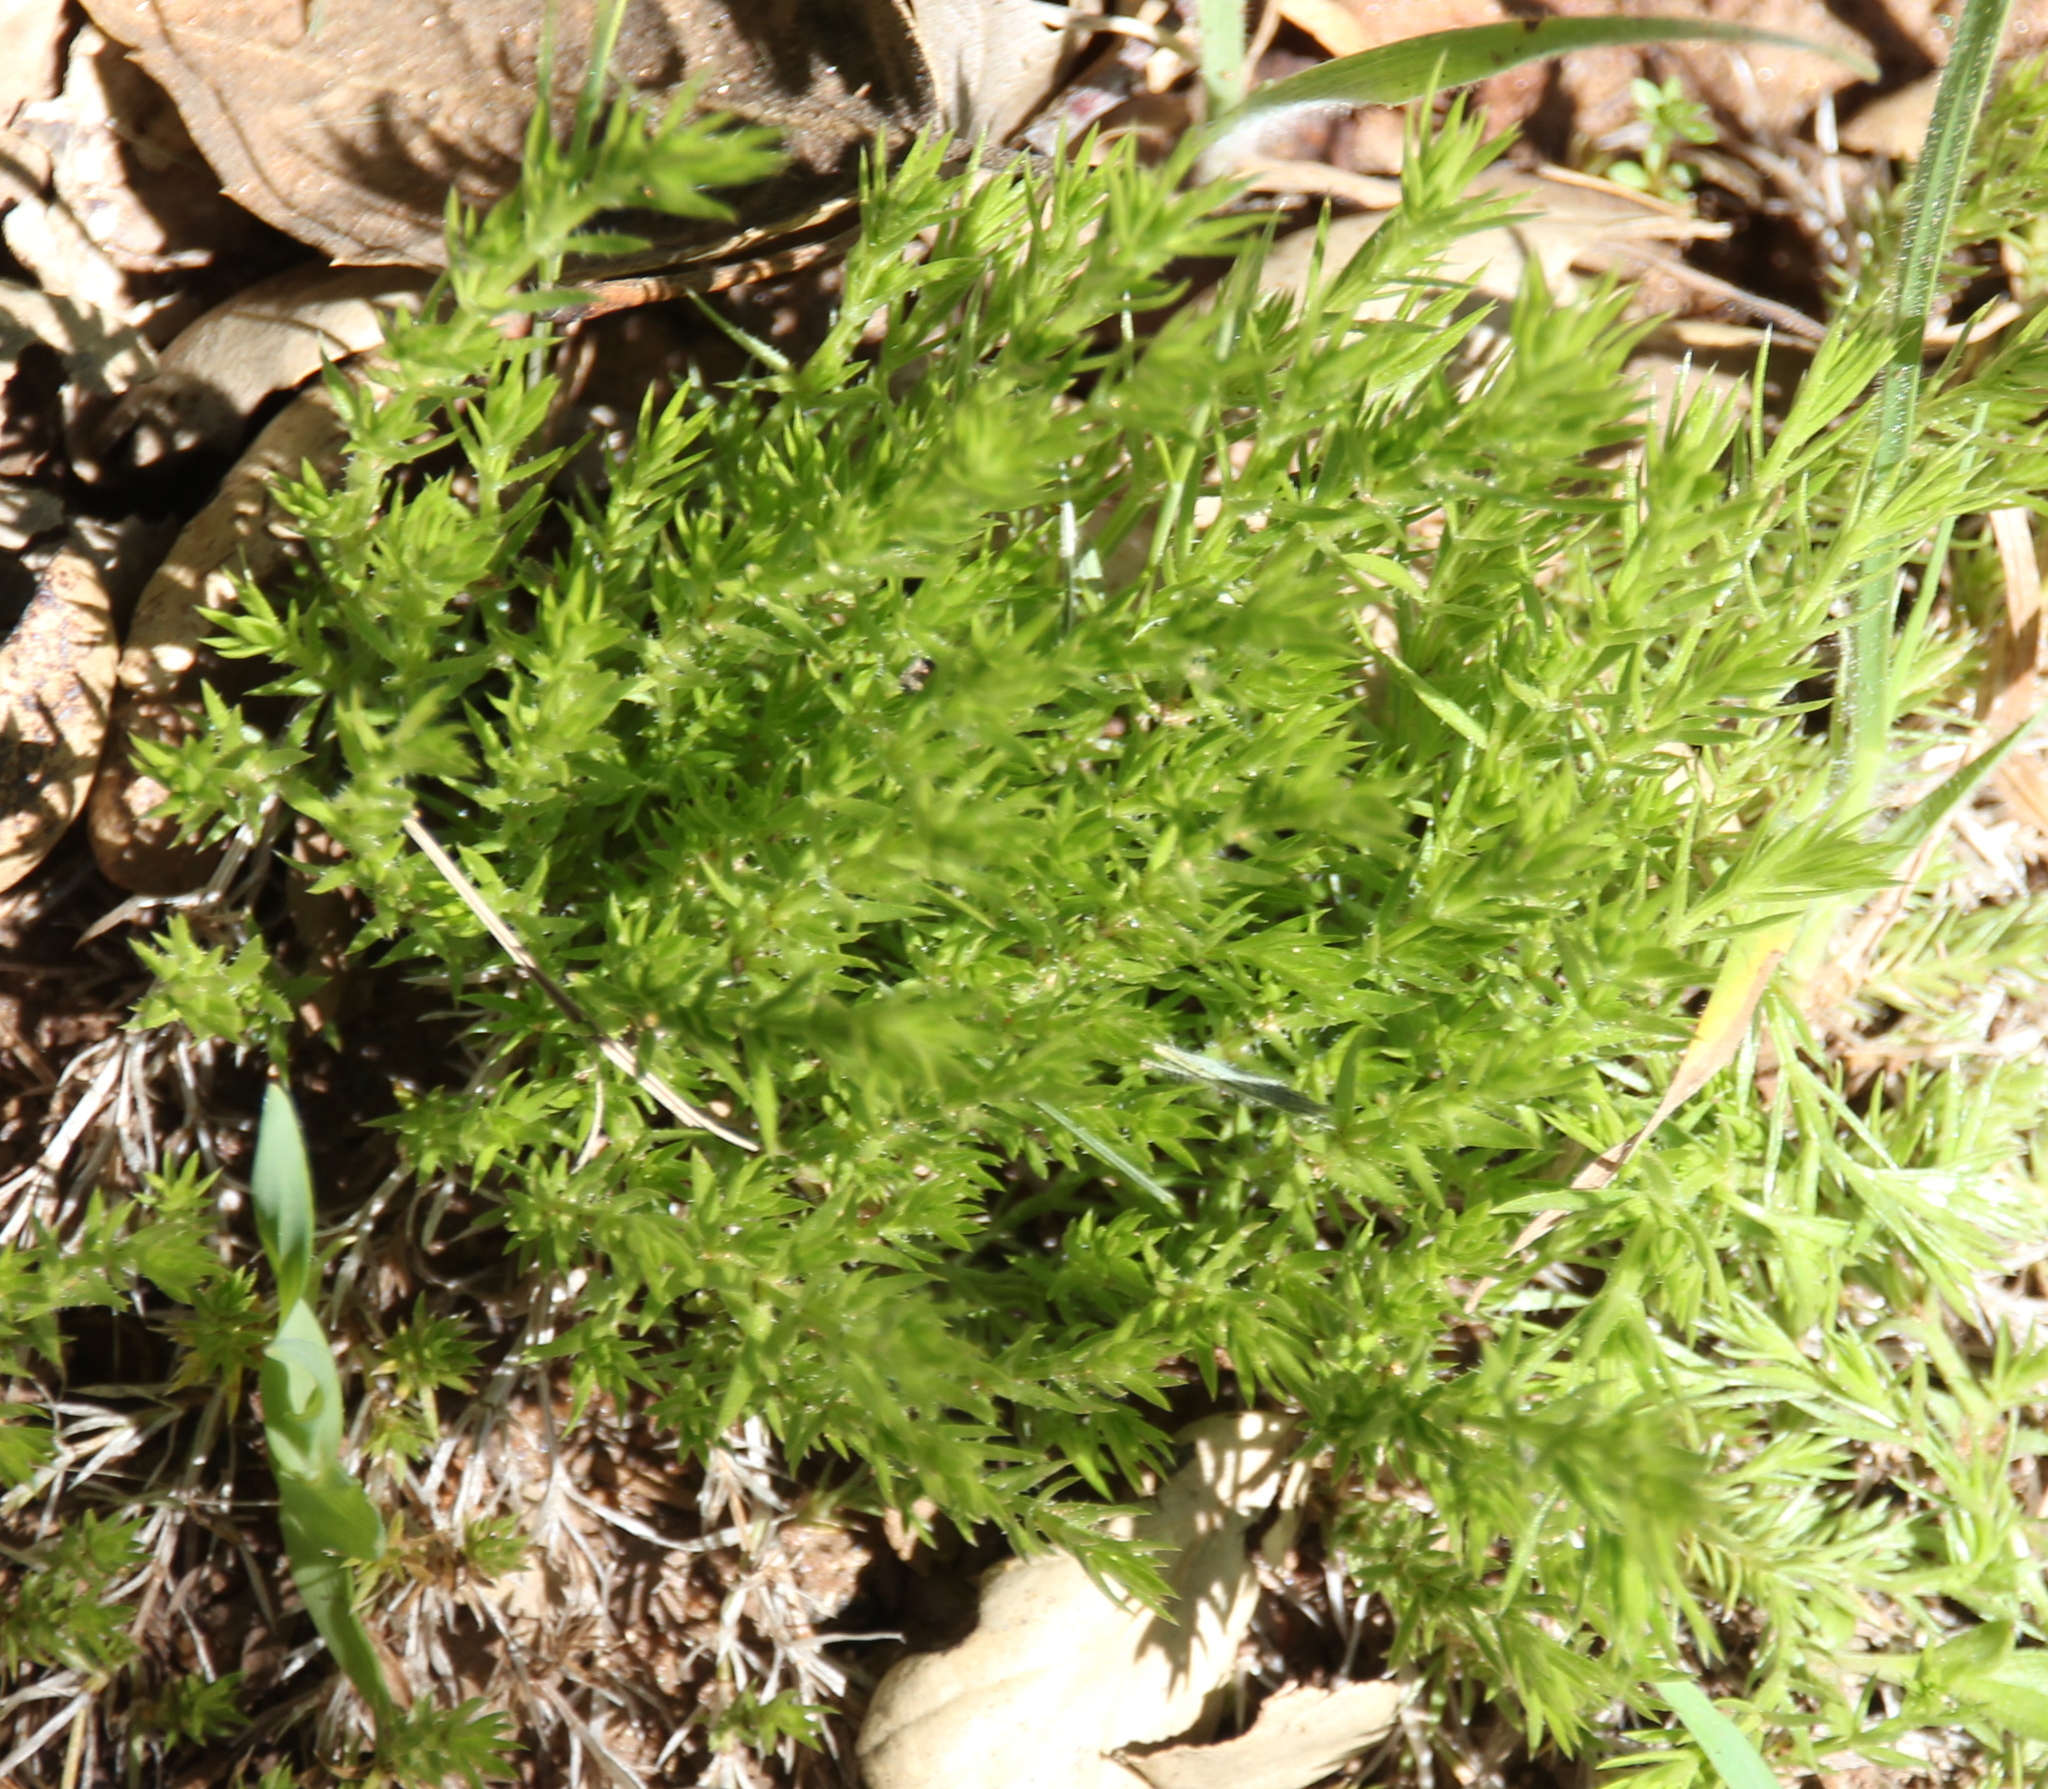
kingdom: Plantae
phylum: Tracheophyta
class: Magnoliopsida
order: Gentianales
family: Rubiaceae
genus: Galium
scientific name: Galium andrewsii
